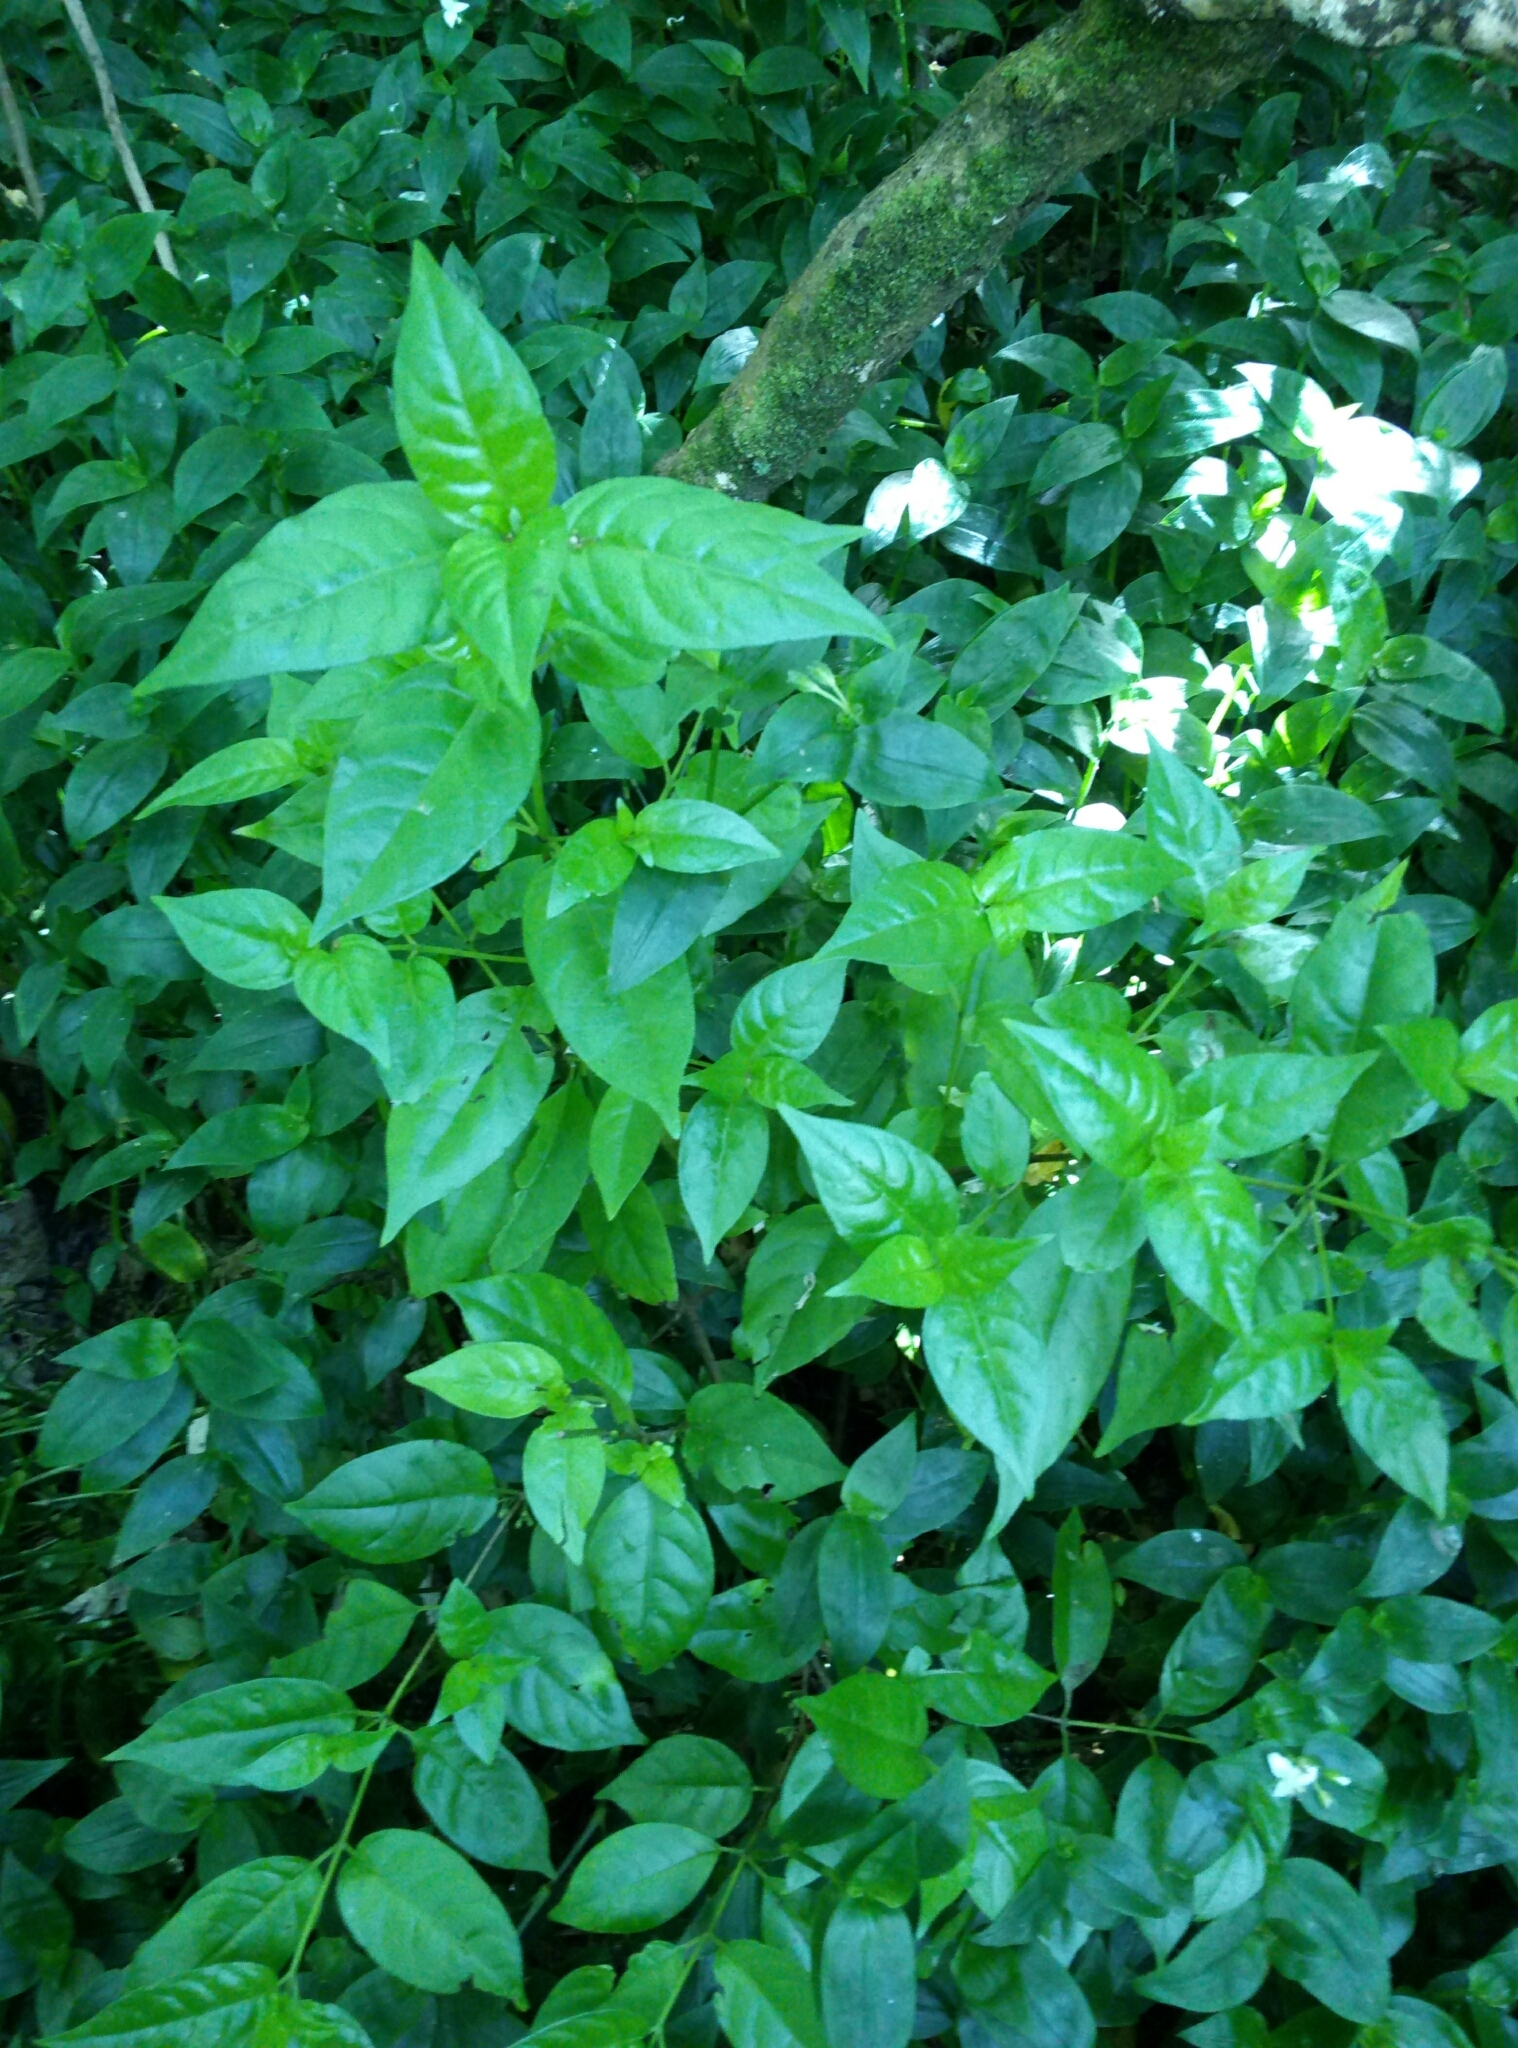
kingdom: Plantae
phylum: Tracheophyta
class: Magnoliopsida
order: Gentianales
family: Loganiaceae
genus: Geniostoma
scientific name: Geniostoma ligustrifolium
